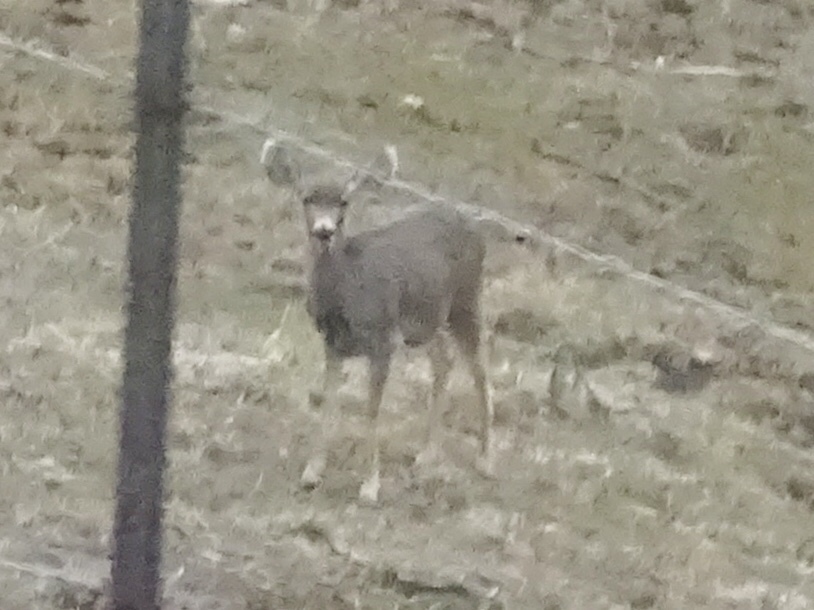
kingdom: Animalia
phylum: Chordata
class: Mammalia
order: Artiodactyla
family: Cervidae
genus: Odocoileus
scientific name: Odocoileus hemionus
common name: Mule deer
